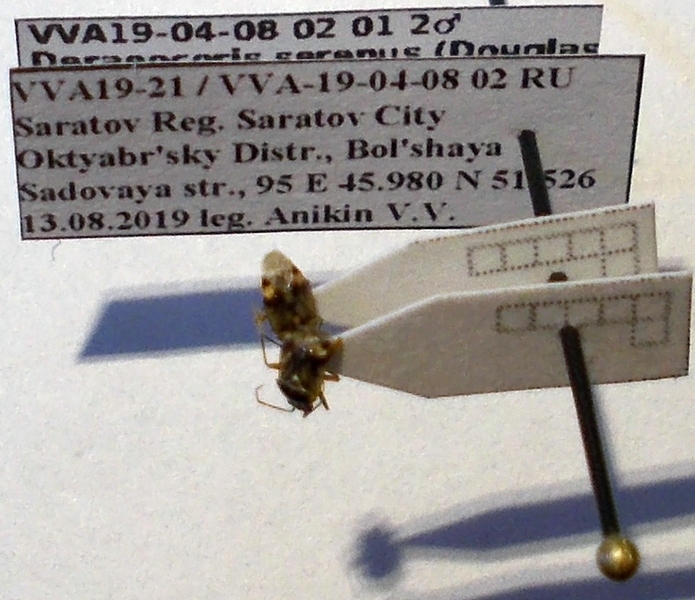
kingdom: Animalia
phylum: Arthropoda
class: Insecta
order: Hemiptera
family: Miridae
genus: Deraeocoris
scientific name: Deraeocoris serenus
